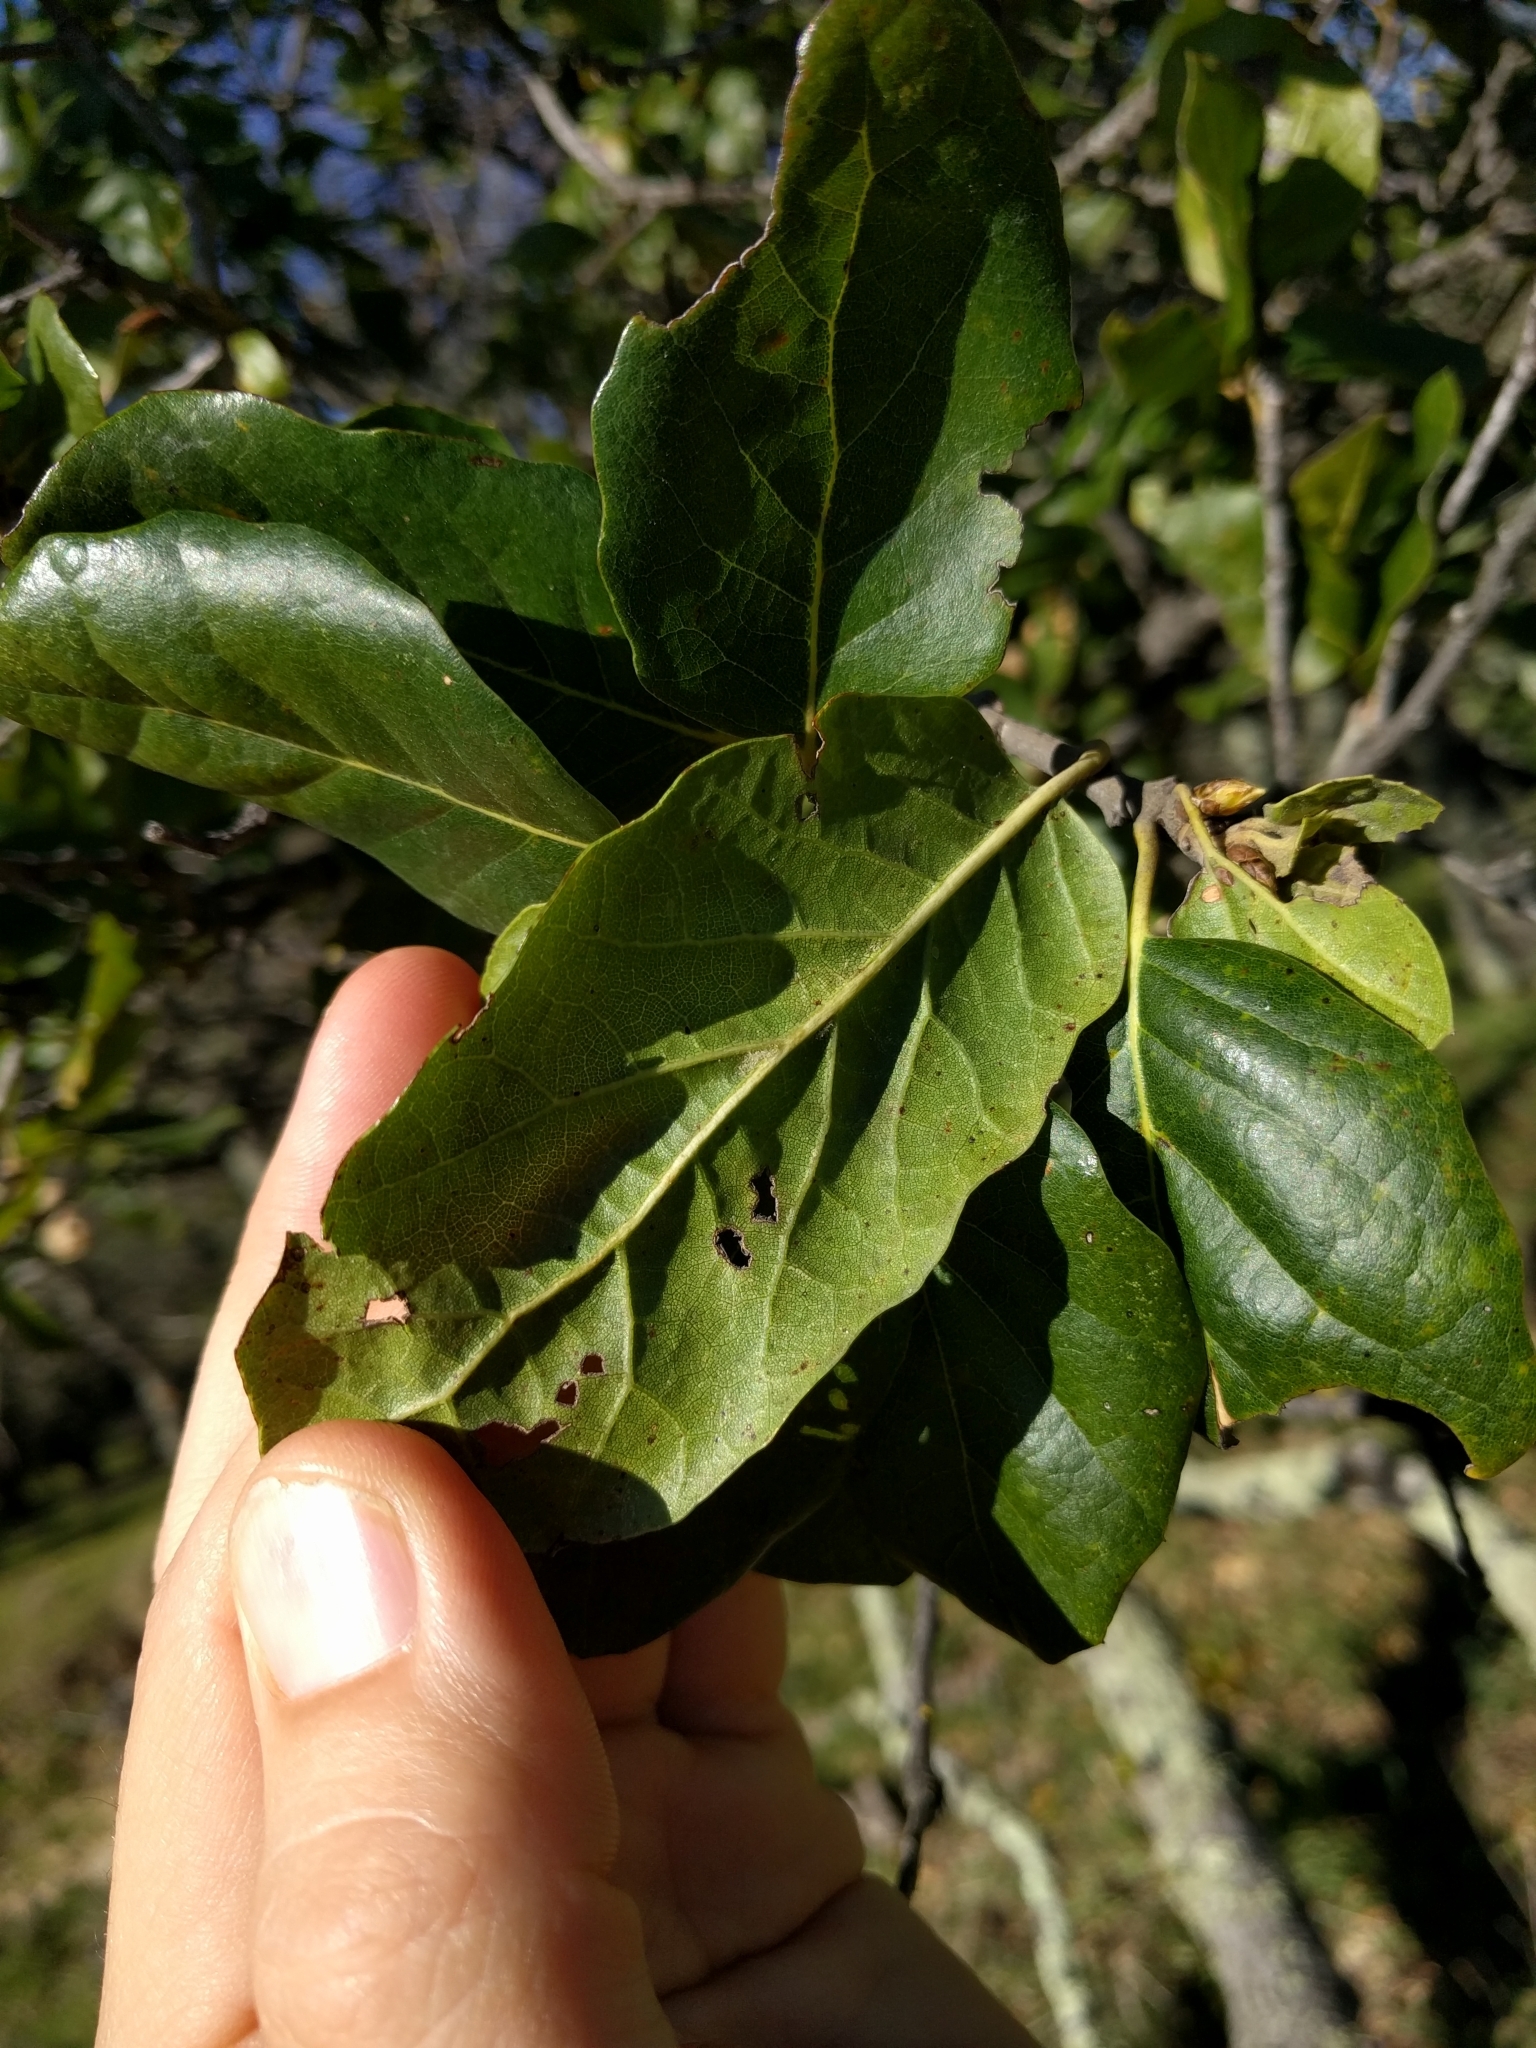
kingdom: Plantae
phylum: Tracheophyta
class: Magnoliopsida
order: Fagales
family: Fagaceae
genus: Quercus
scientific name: Quercus agrifolia
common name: California live oak
